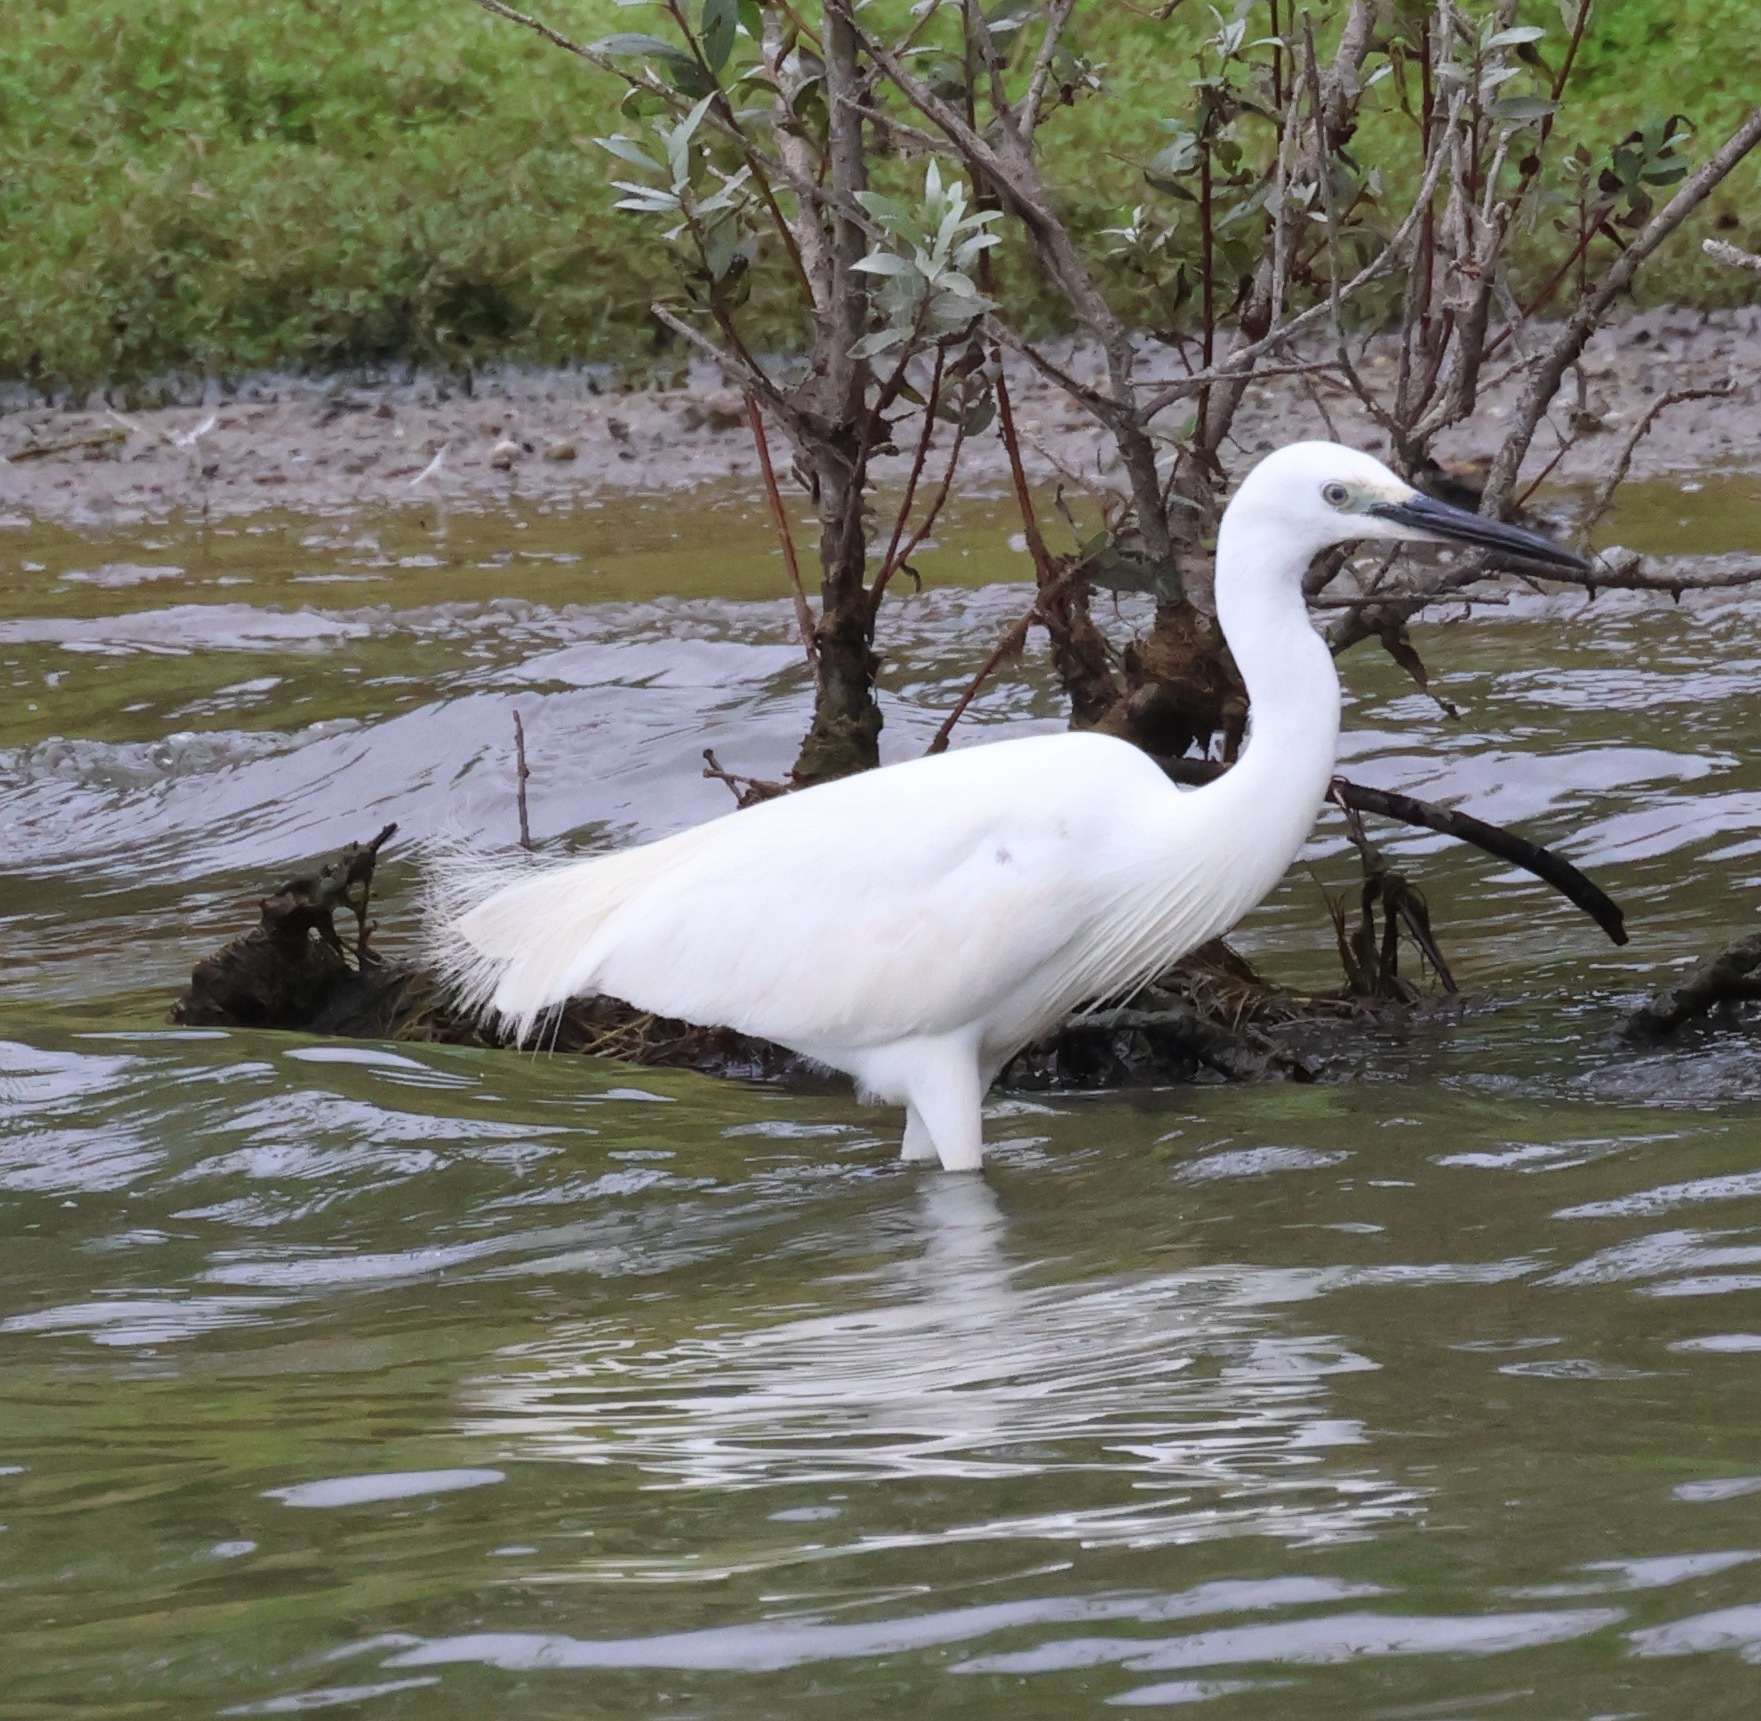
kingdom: Animalia
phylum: Chordata
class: Aves
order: Pelecaniformes
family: Ardeidae
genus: Egretta
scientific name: Egretta garzetta
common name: Little egret
